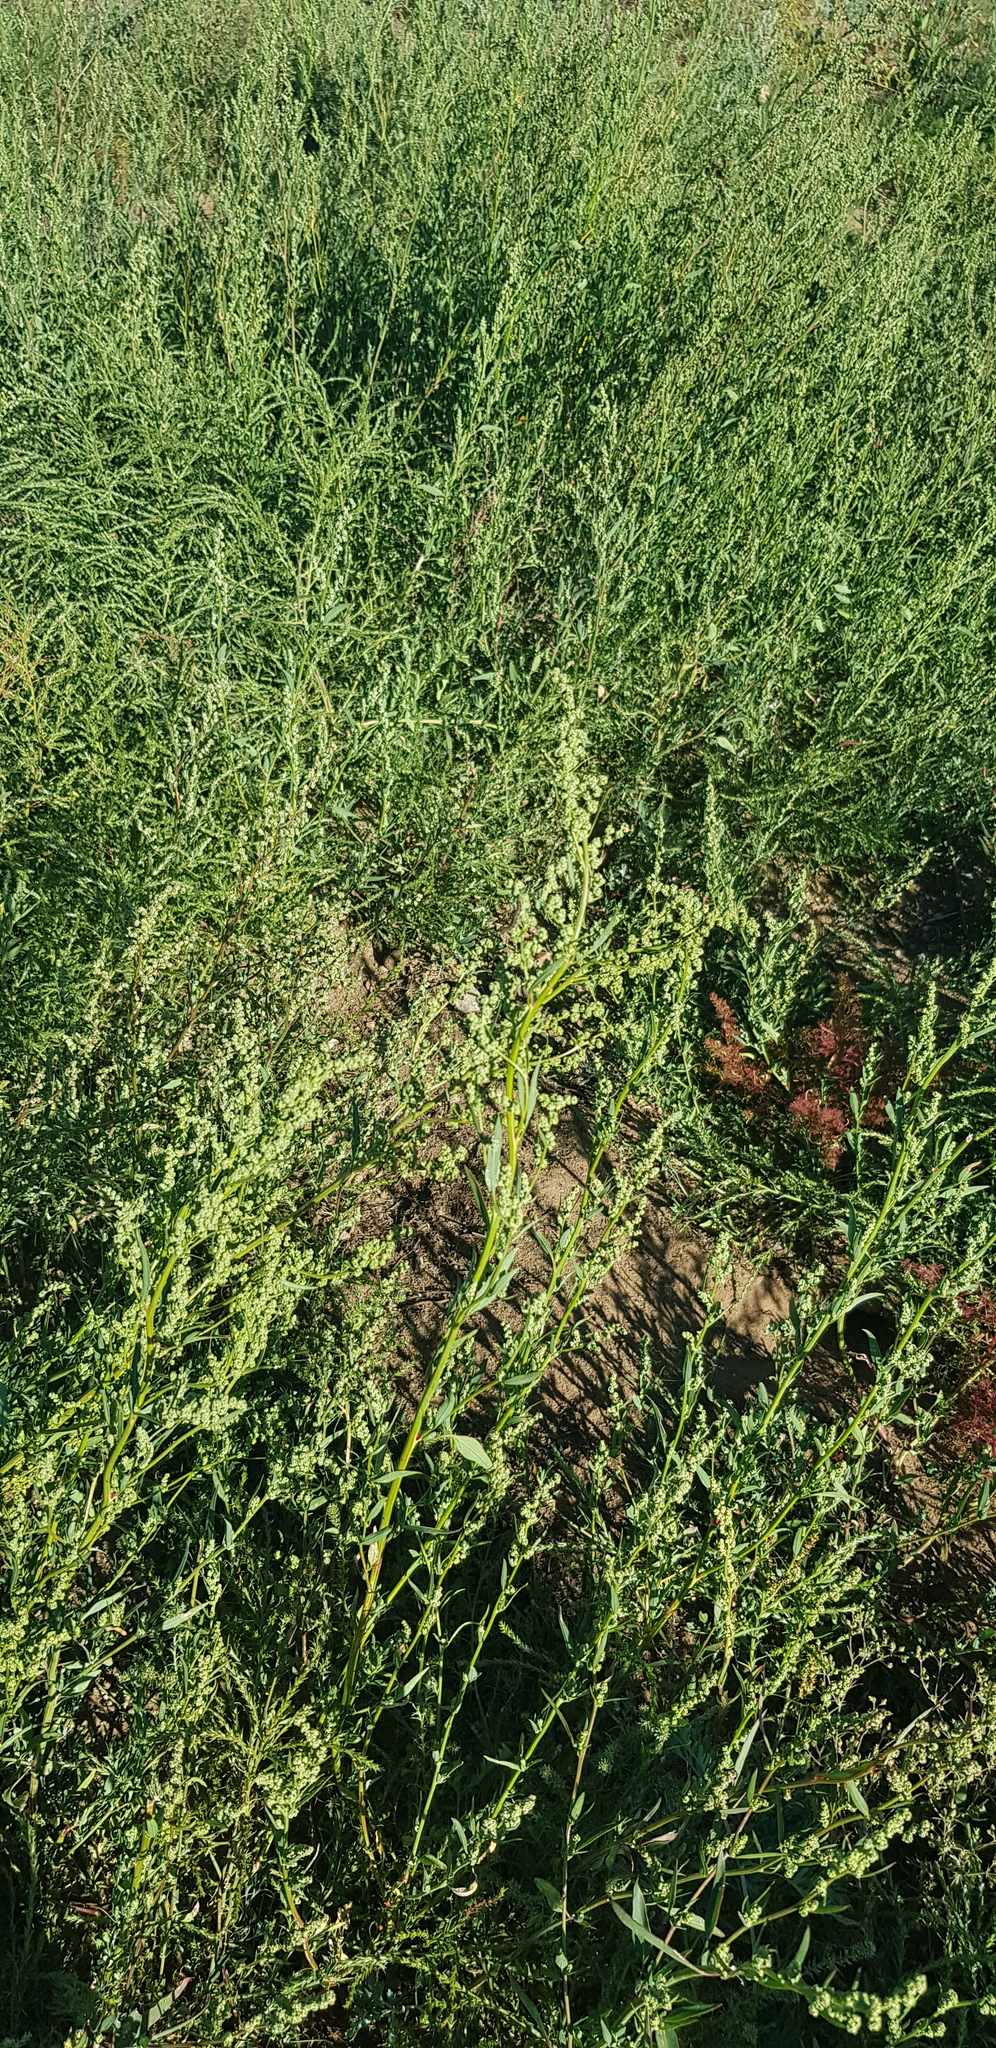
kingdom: Plantae
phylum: Tracheophyta
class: Magnoliopsida
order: Asterales
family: Asteraceae
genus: Artemisia
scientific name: Artemisia dracunculus
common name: Tarragon
